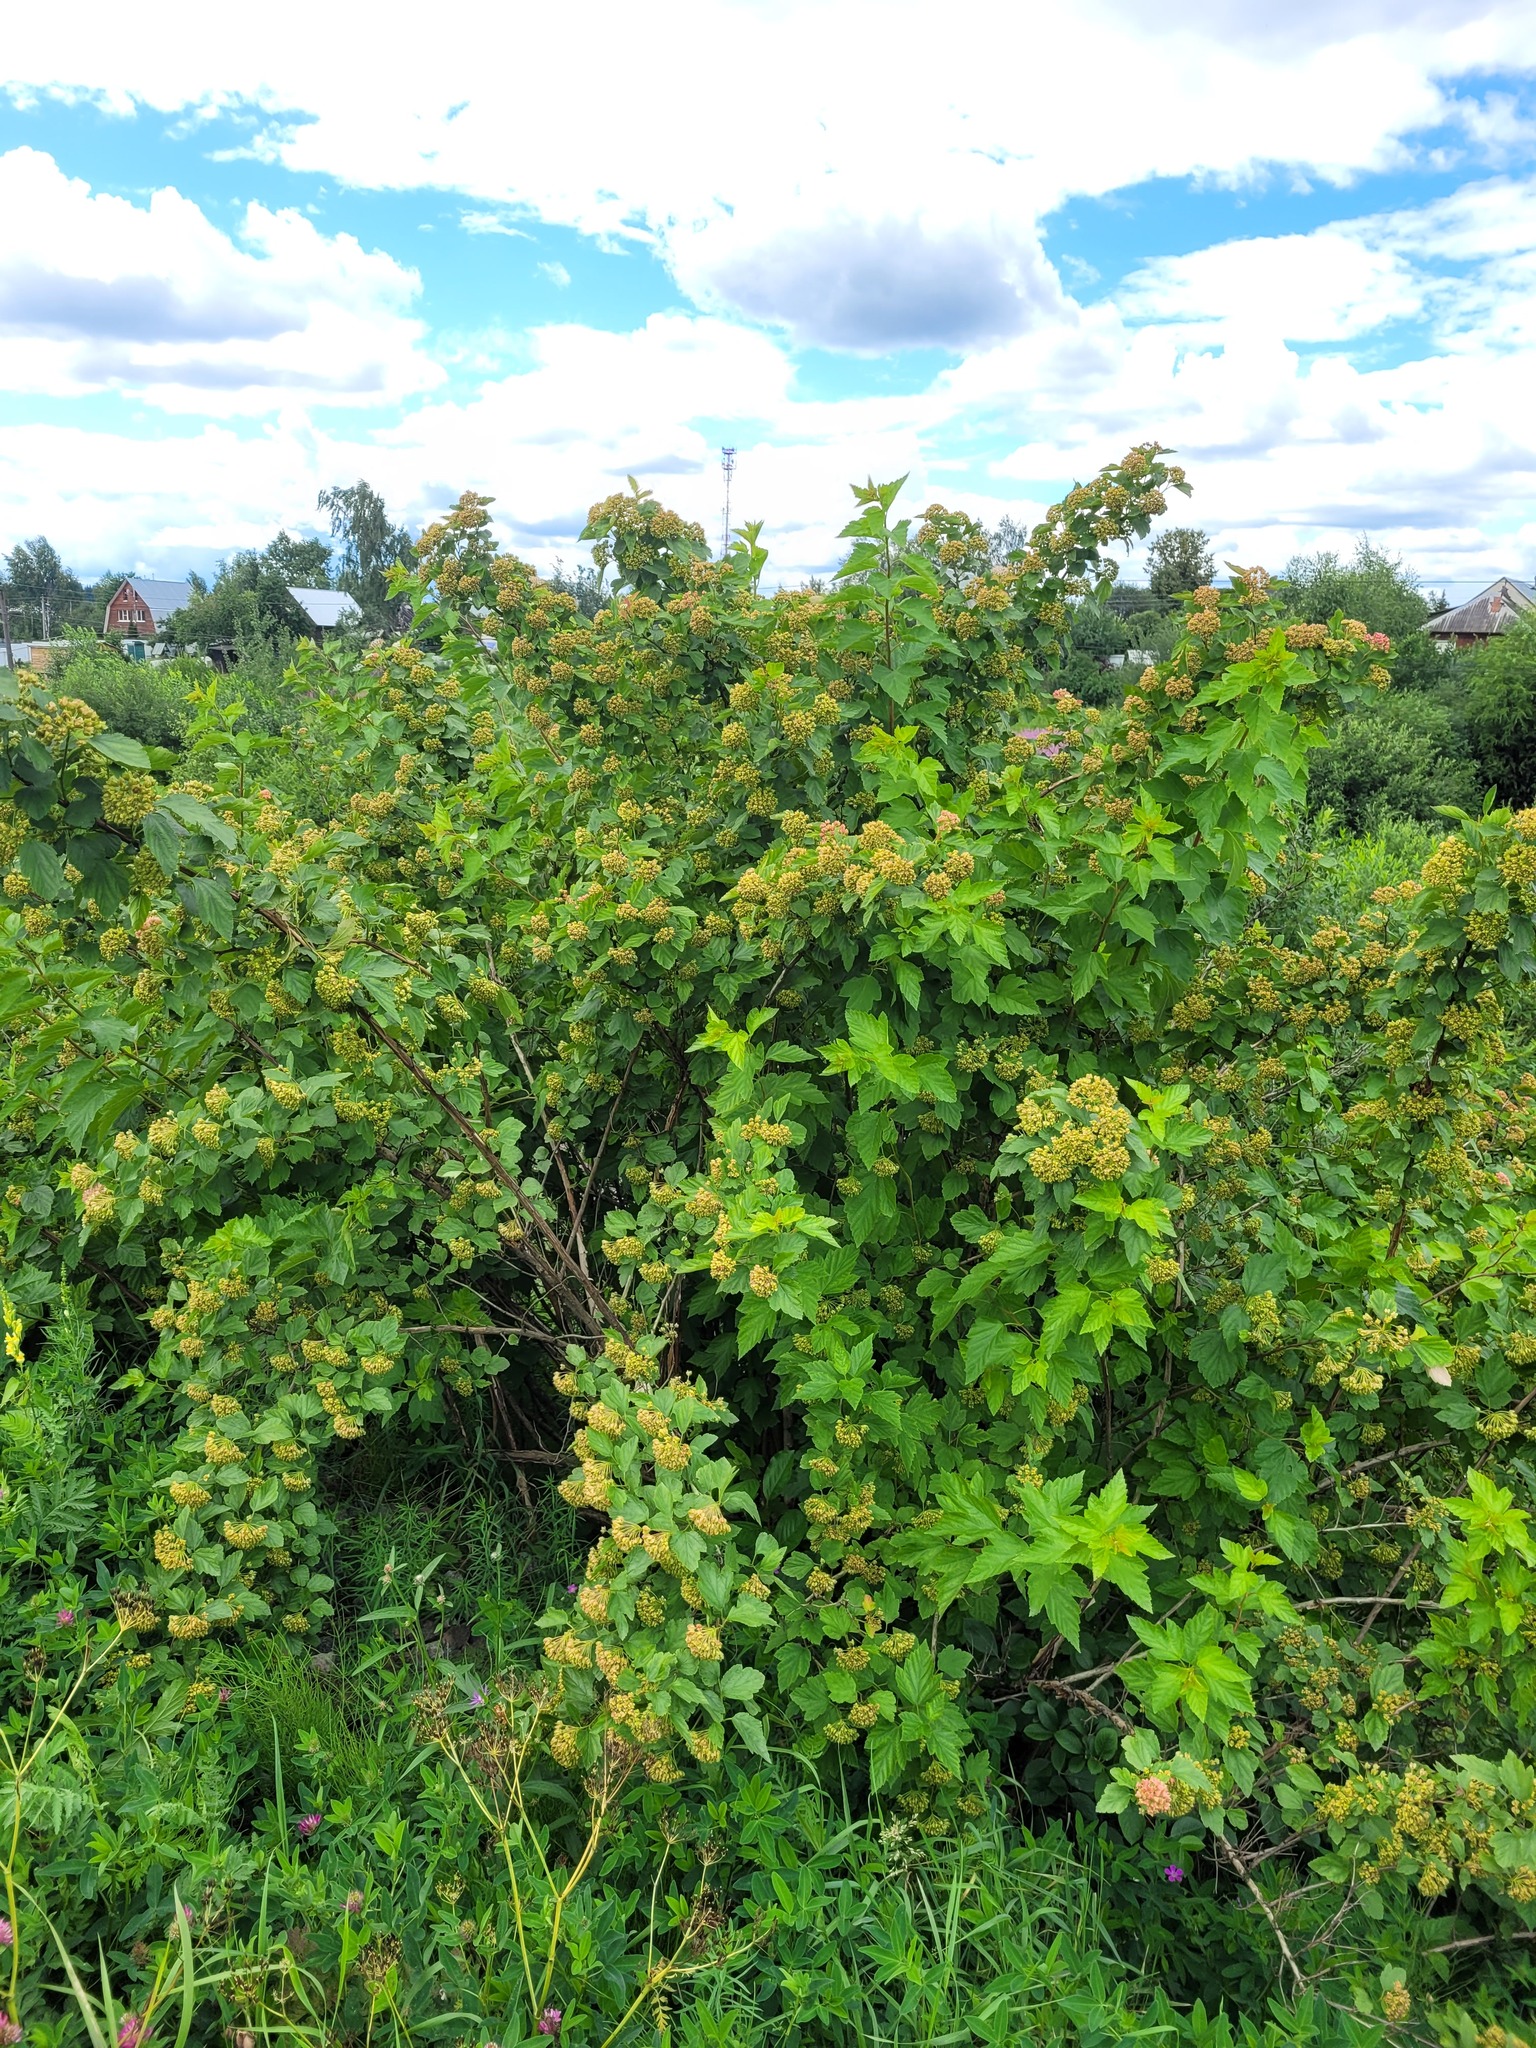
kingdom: Plantae
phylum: Tracheophyta
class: Magnoliopsida
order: Rosales
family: Rosaceae
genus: Physocarpus
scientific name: Physocarpus opulifolius
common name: Ninebark
